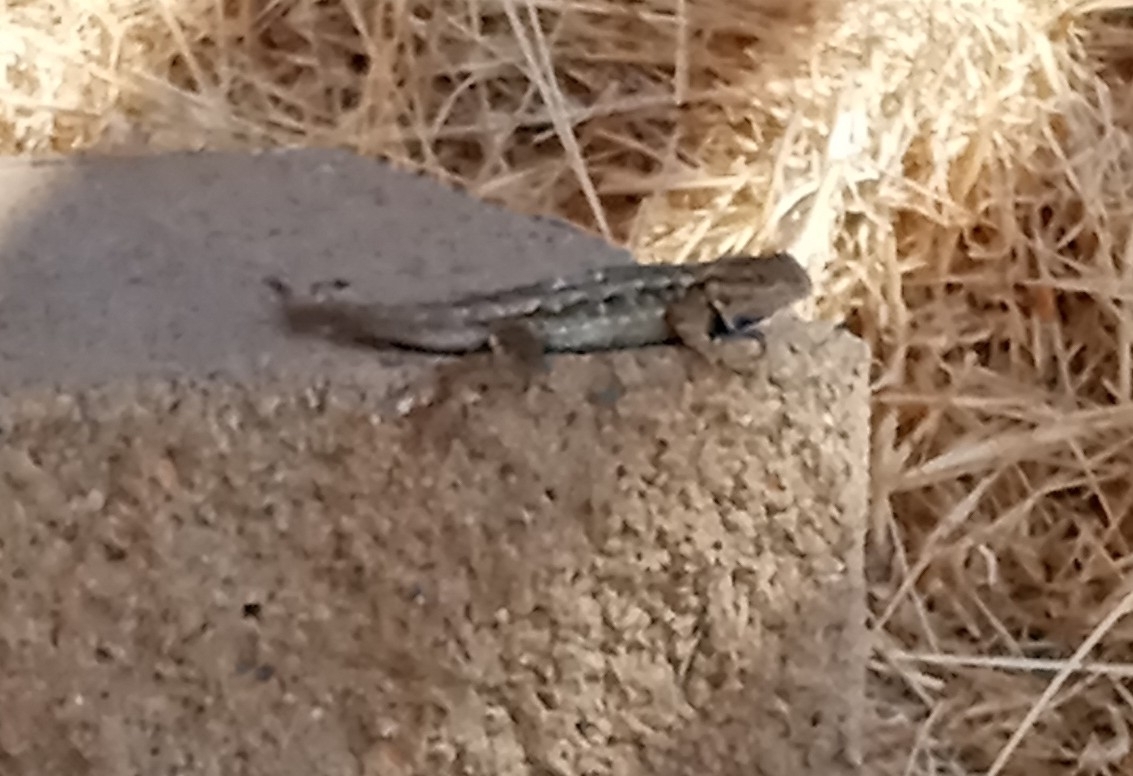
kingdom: Animalia
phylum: Chordata
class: Squamata
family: Phrynosomatidae
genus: Sceloporus
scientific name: Sceloporus occidentalis
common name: Western fence lizard
